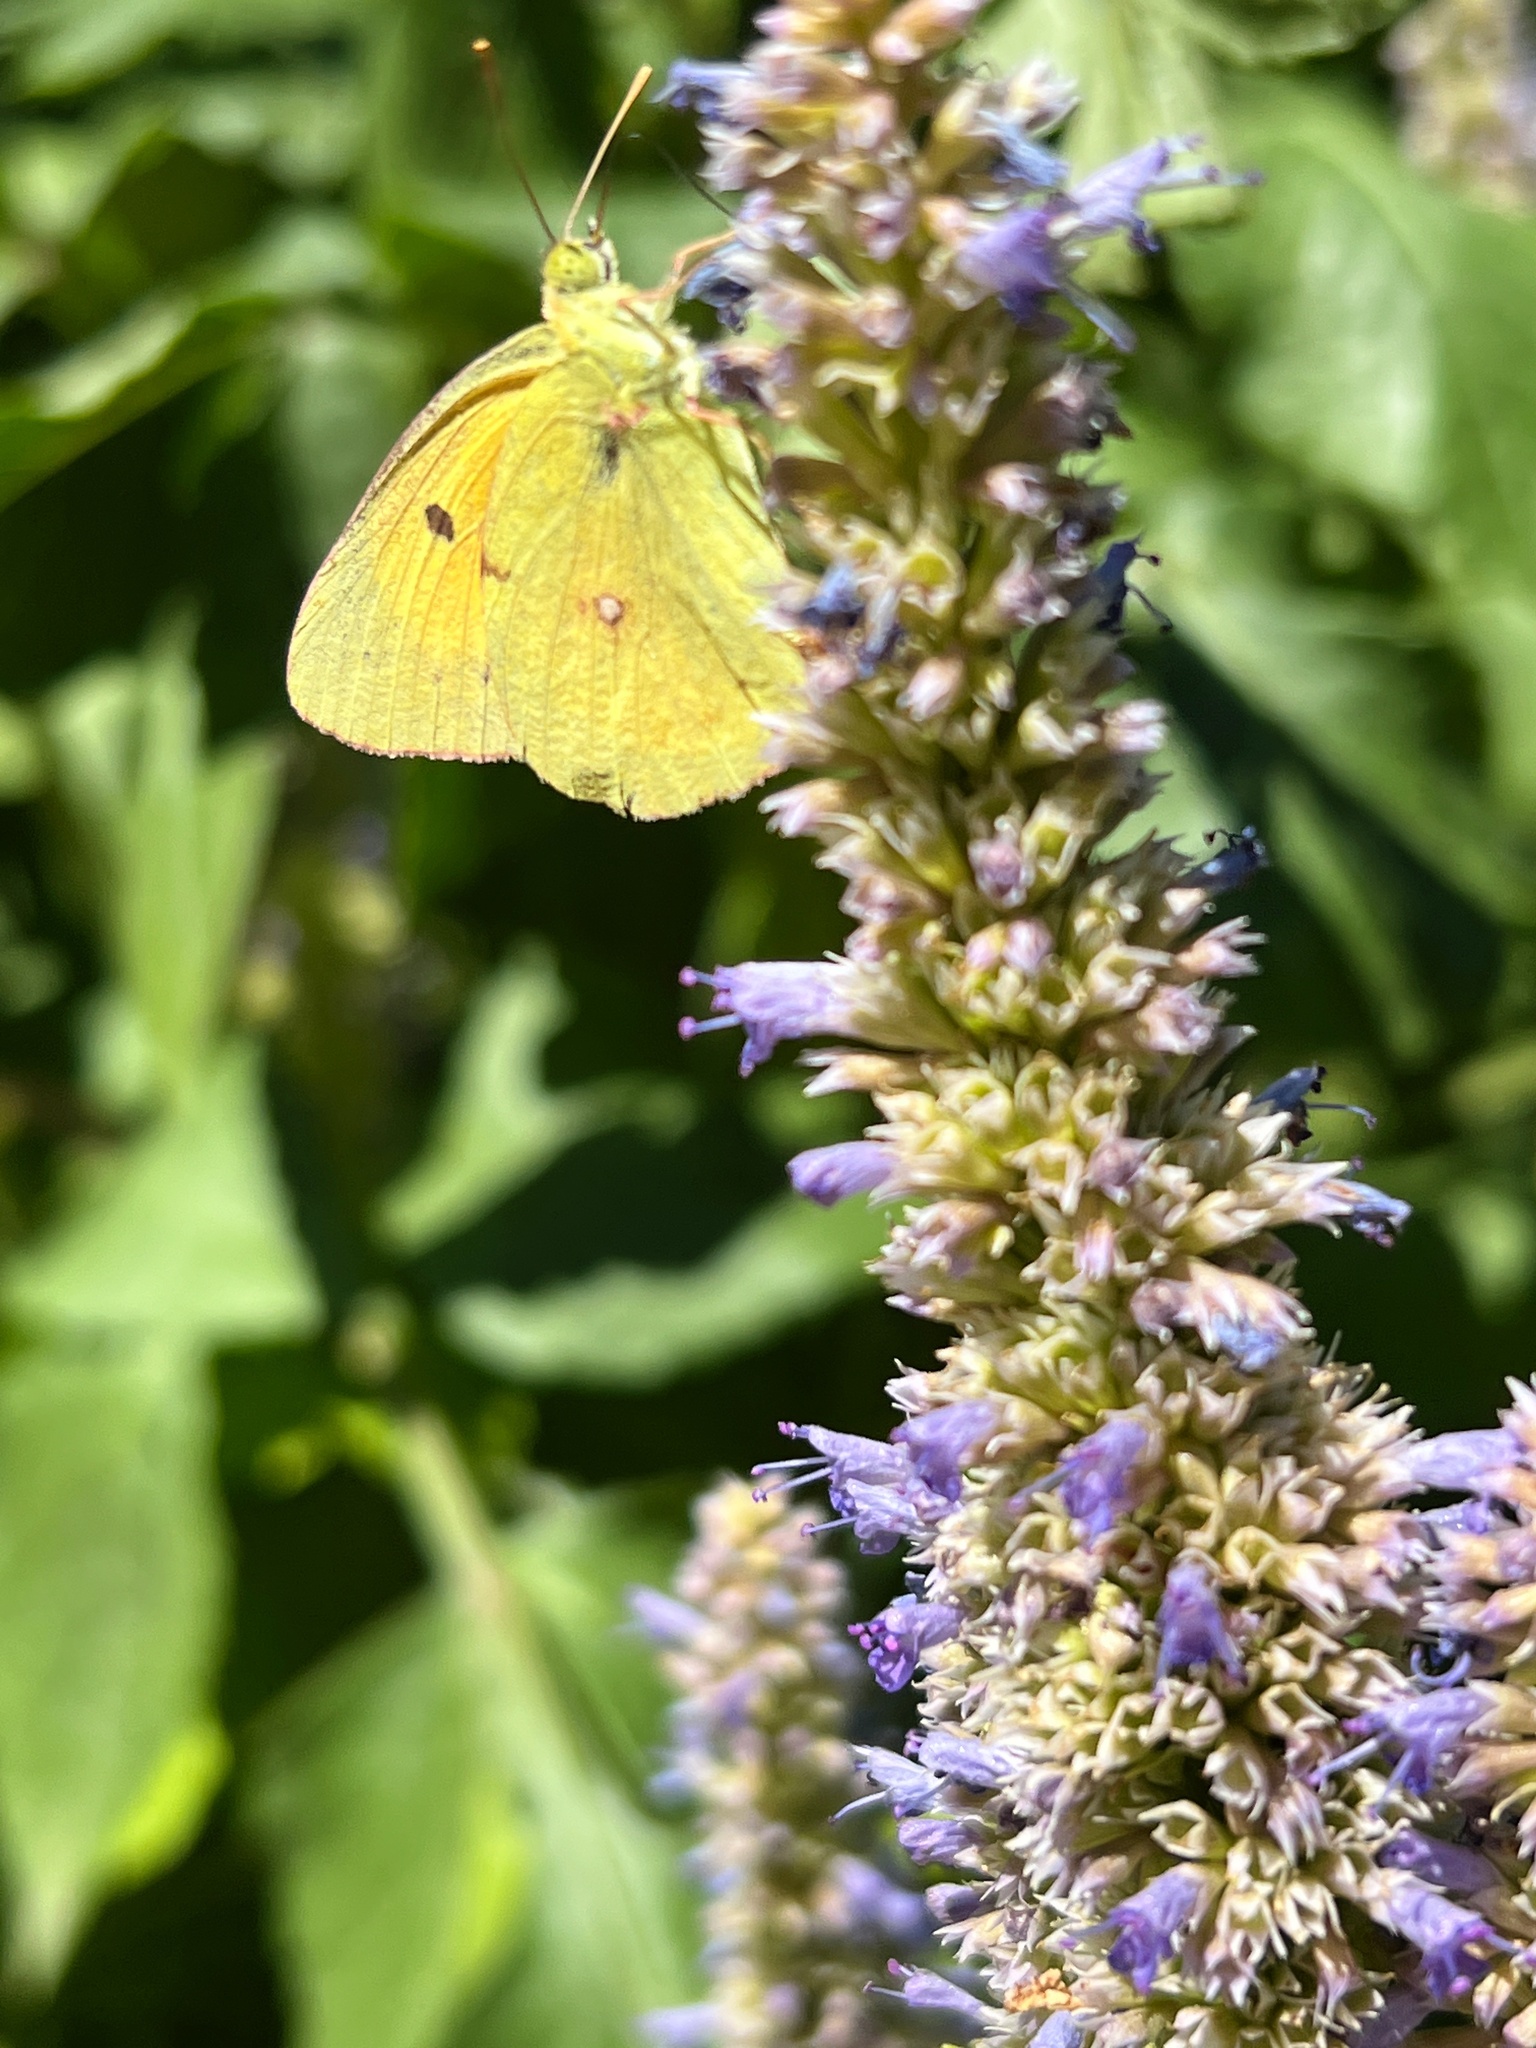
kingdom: Animalia
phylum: Arthropoda
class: Insecta
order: Lepidoptera
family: Pieridae
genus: Colias
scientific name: Colias croceus
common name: Clouded yellow
